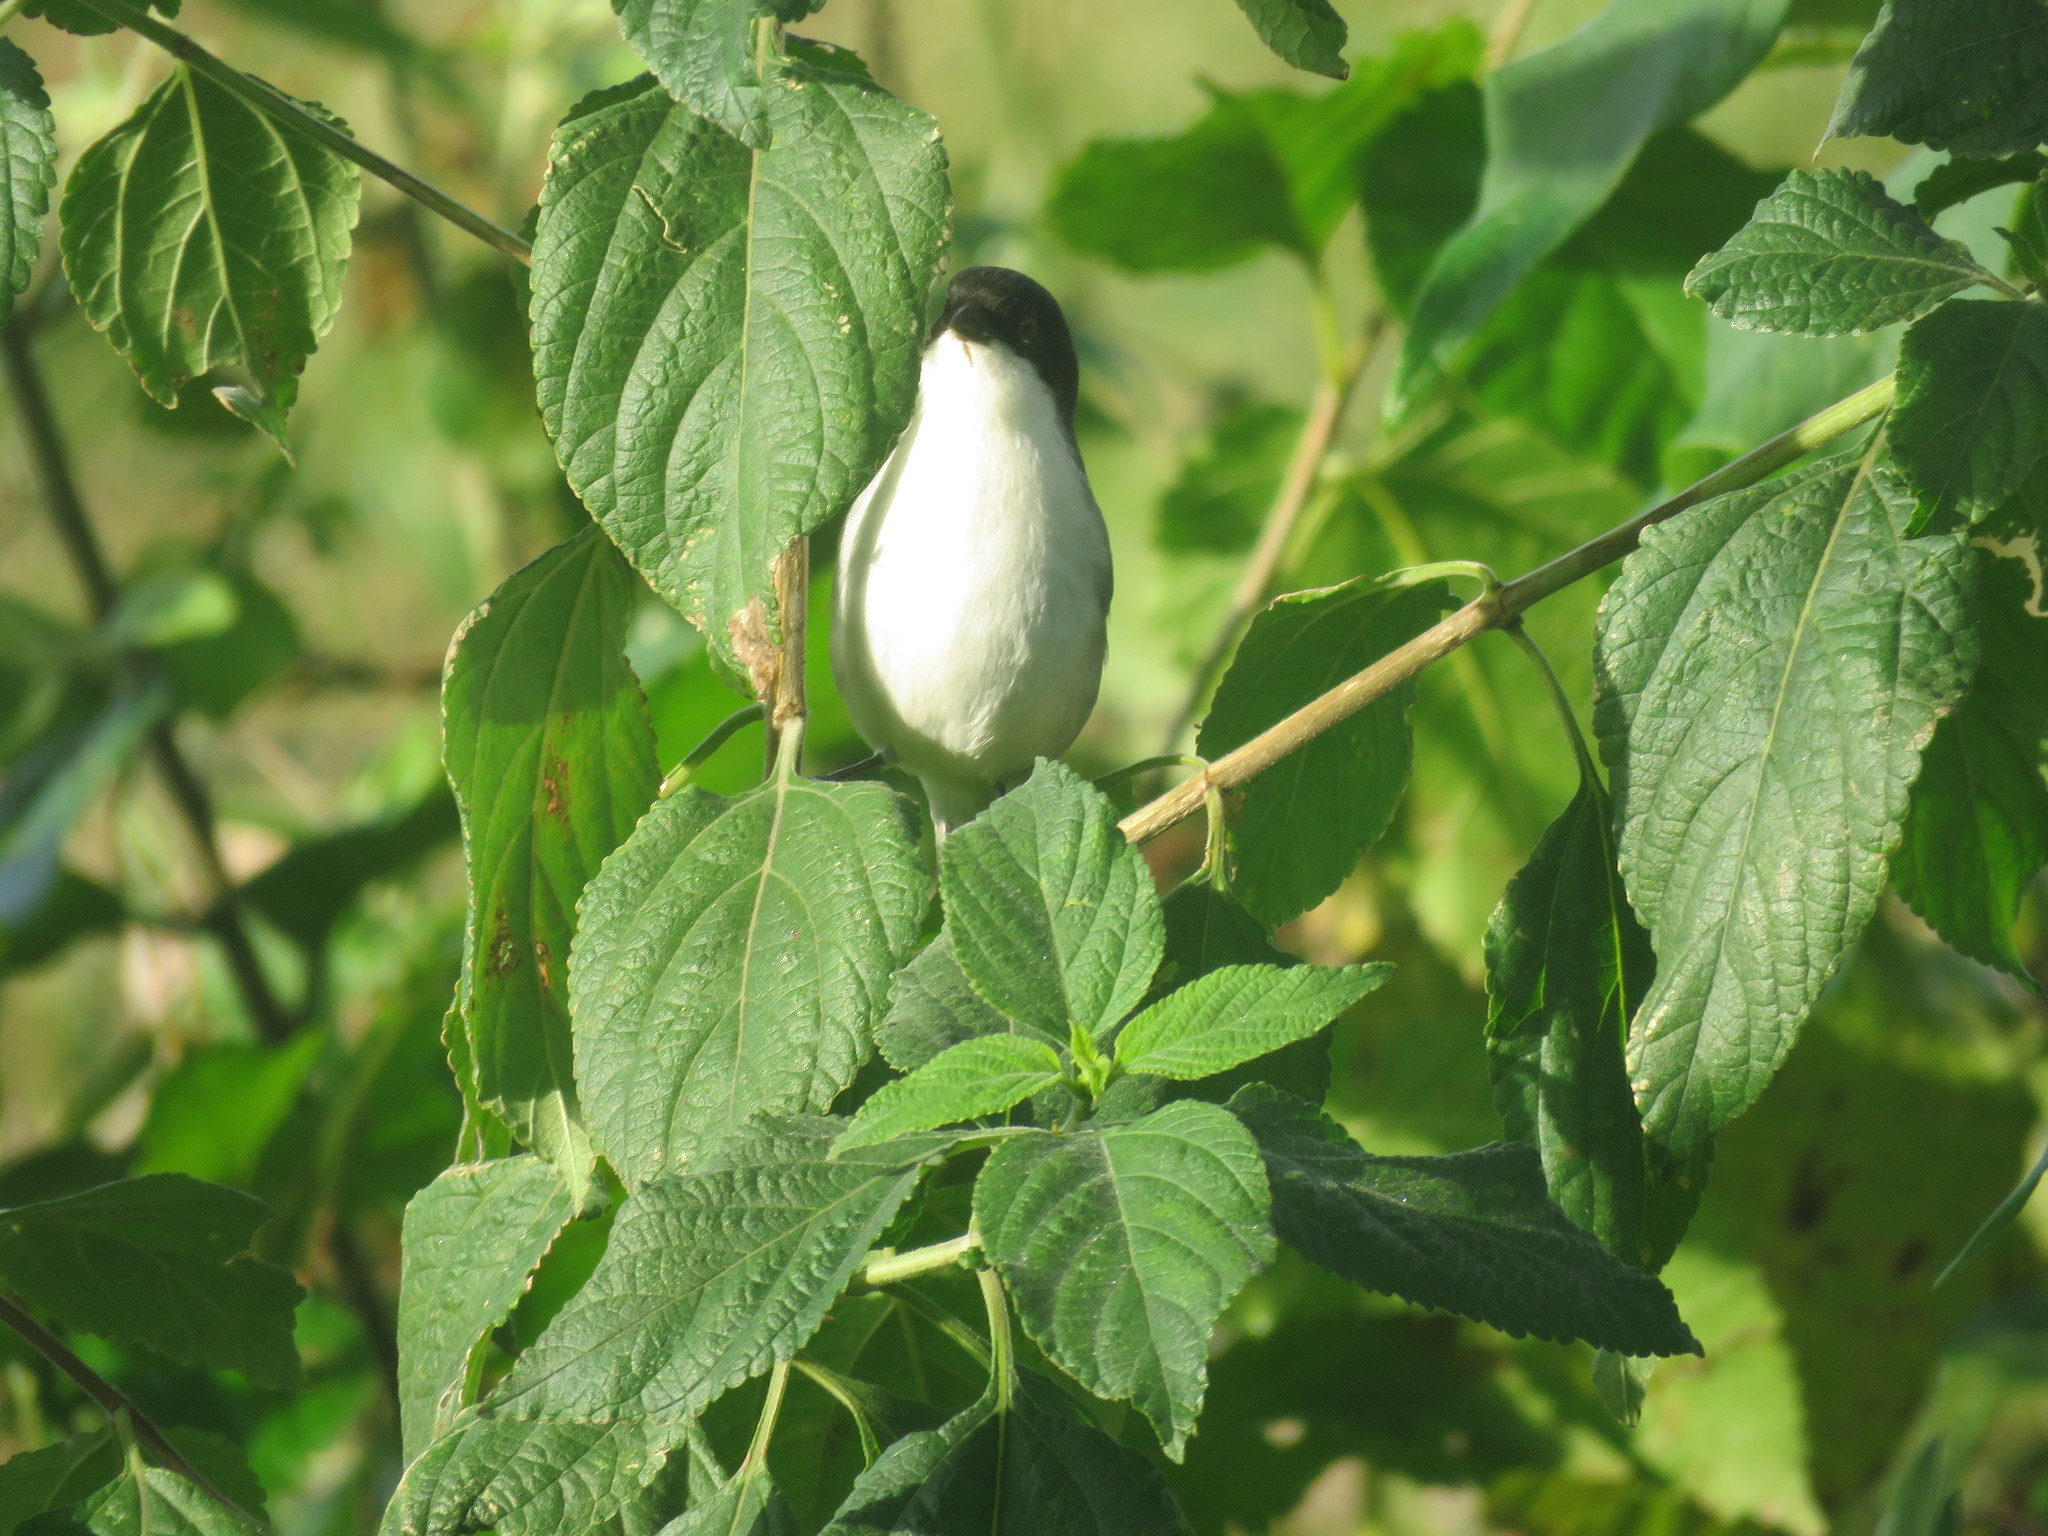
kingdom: Animalia
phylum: Chordata
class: Aves
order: Passeriformes
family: Thraupidae
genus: Microspingus
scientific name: Microspingus melanoleucus
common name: Black-capped warbling-finch
